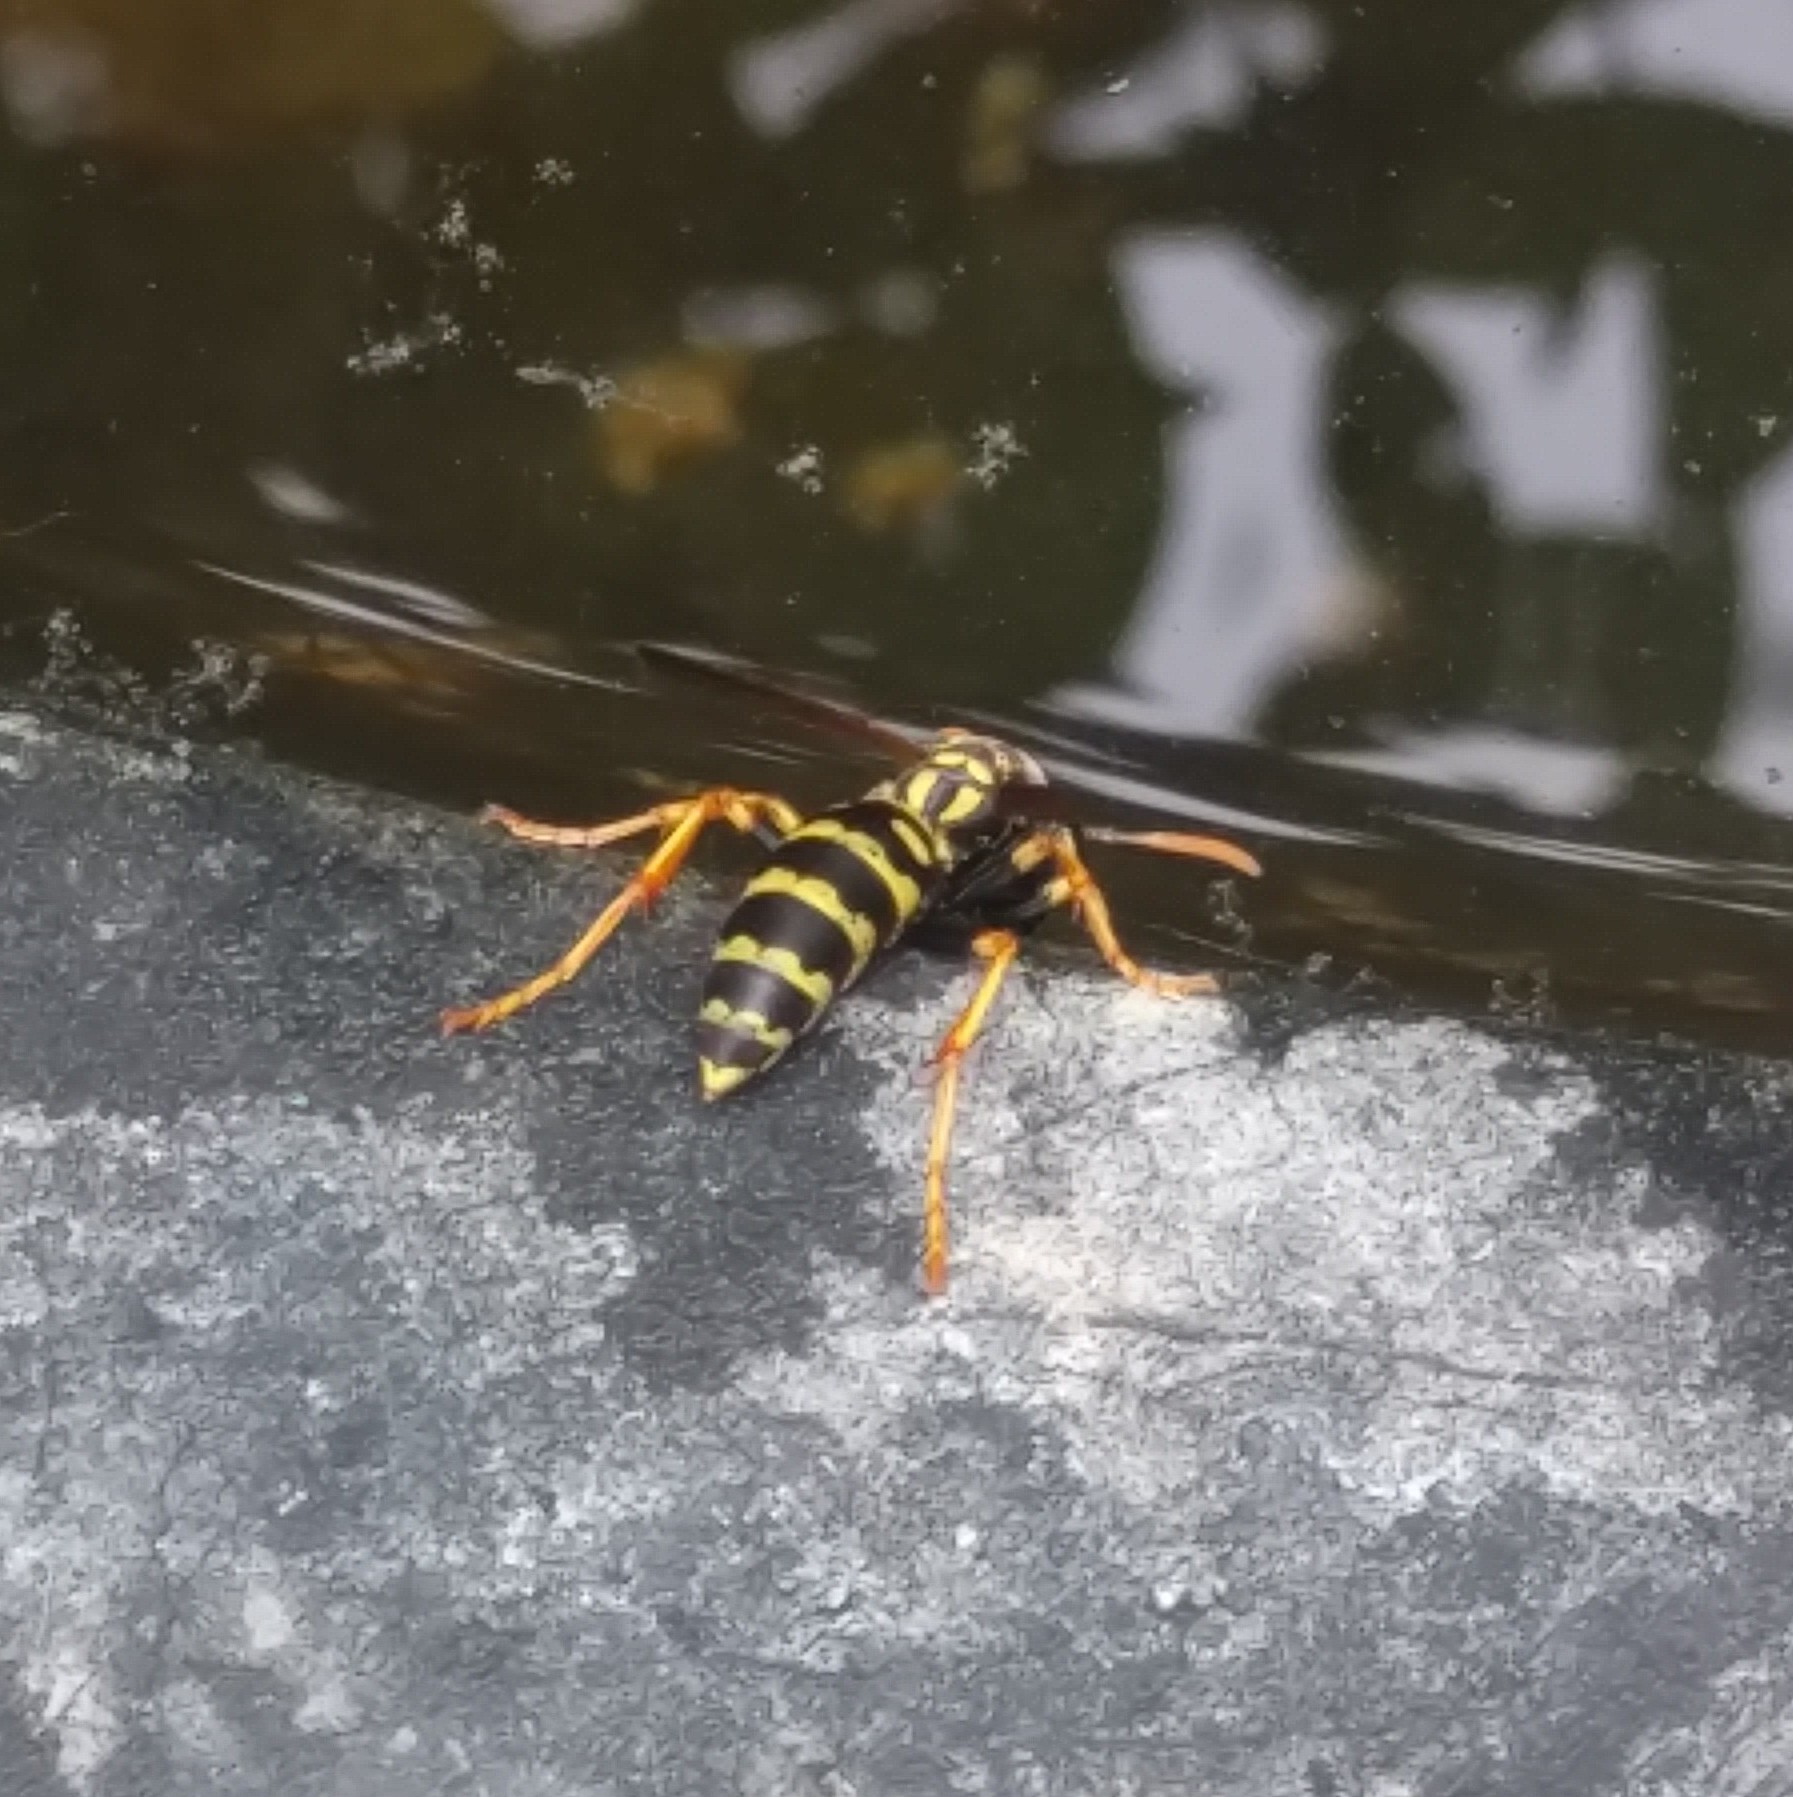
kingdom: Animalia
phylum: Arthropoda
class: Insecta
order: Hymenoptera
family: Eumenidae
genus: Polistes
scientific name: Polistes dominula
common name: Paper wasp
